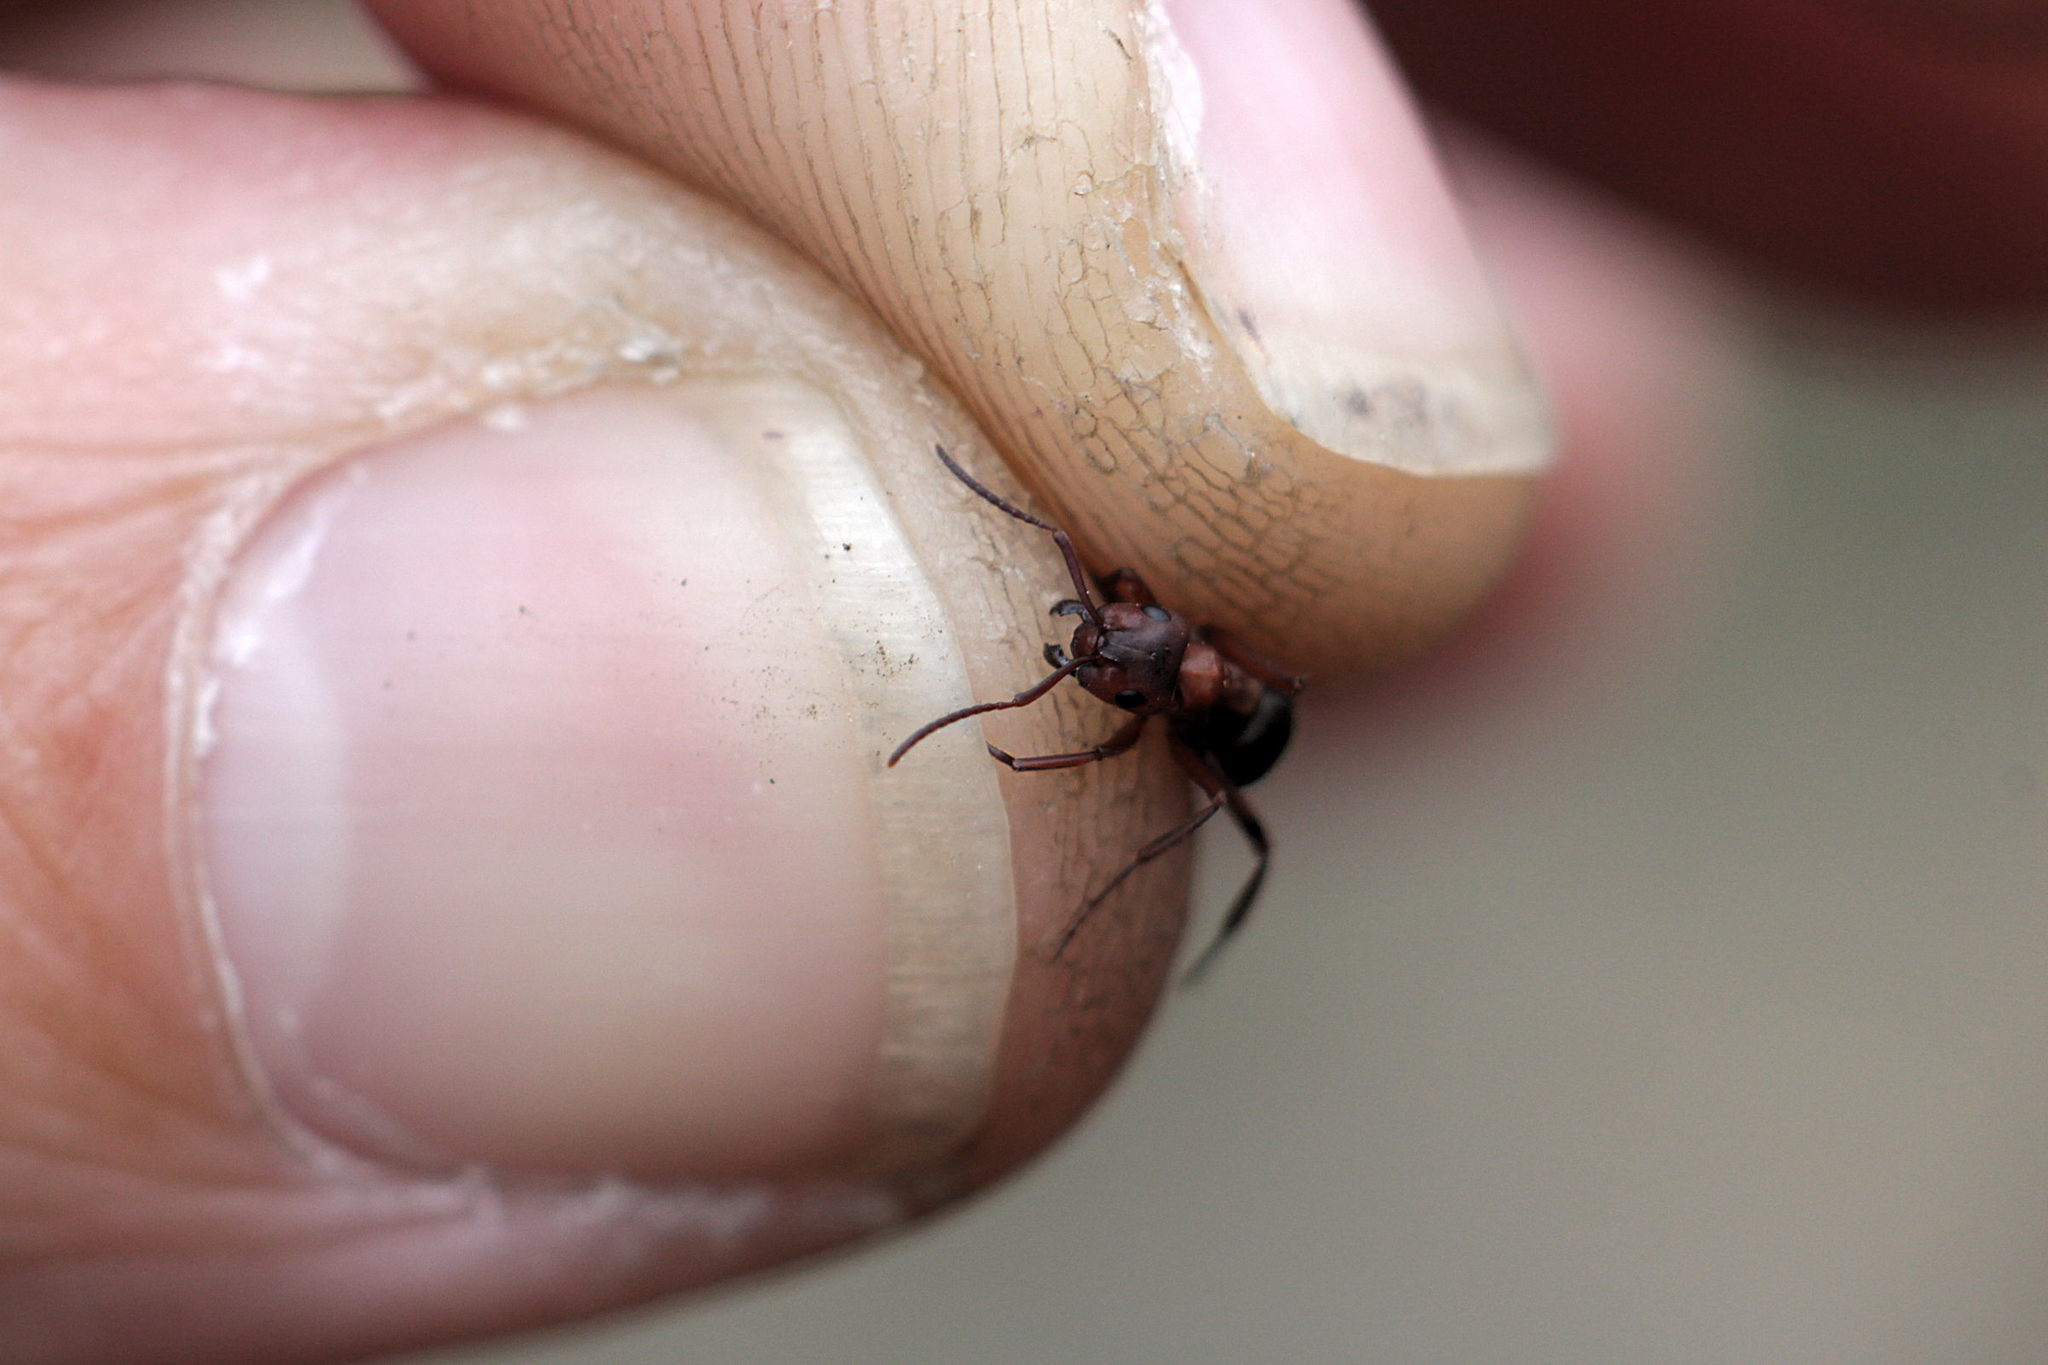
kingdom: Animalia
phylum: Arthropoda
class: Insecta
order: Hymenoptera
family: Formicidae
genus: Formica
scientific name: Formica sanguinea
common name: Blood-red ant
